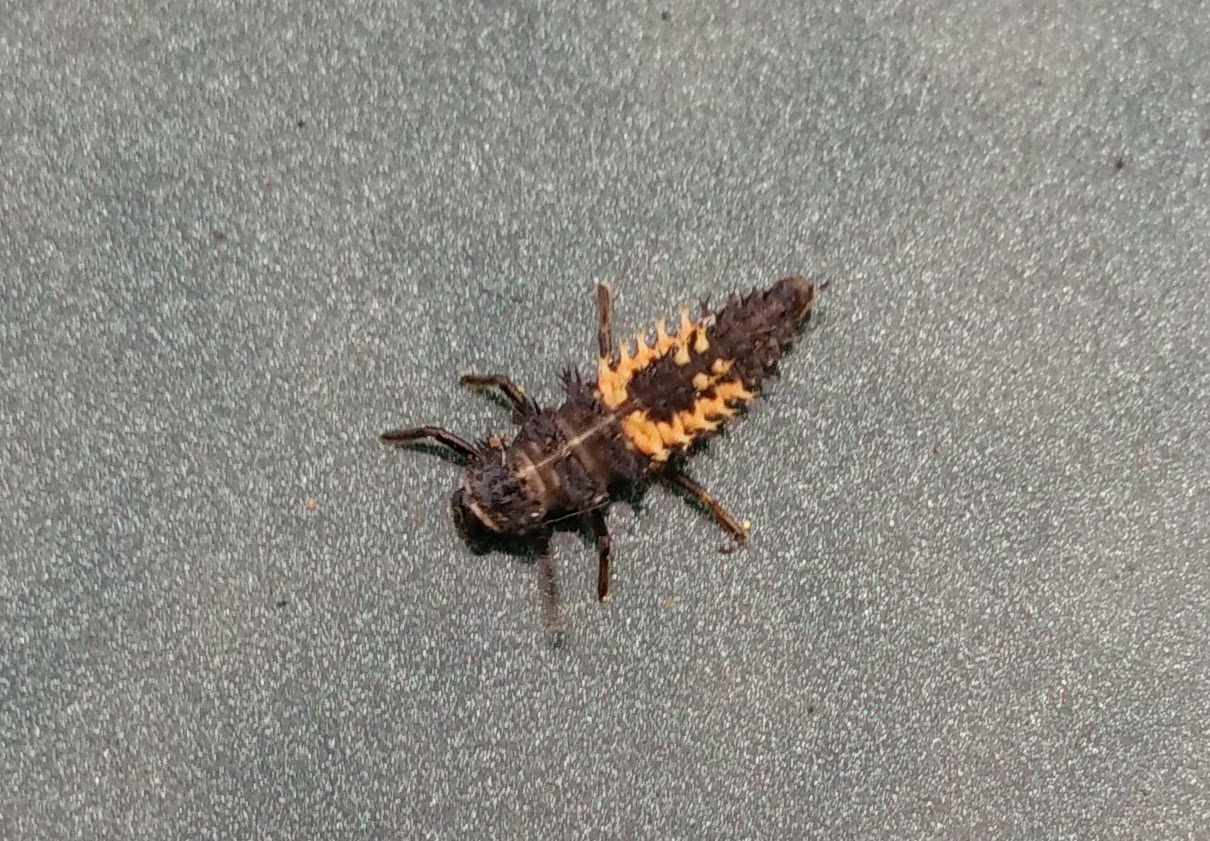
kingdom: Animalia
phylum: Arthropoda
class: Insecta
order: Coleoptera
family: Coccinellidae
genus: Harmonia
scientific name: Harmonia axyridis
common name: Harlequin ladybird
